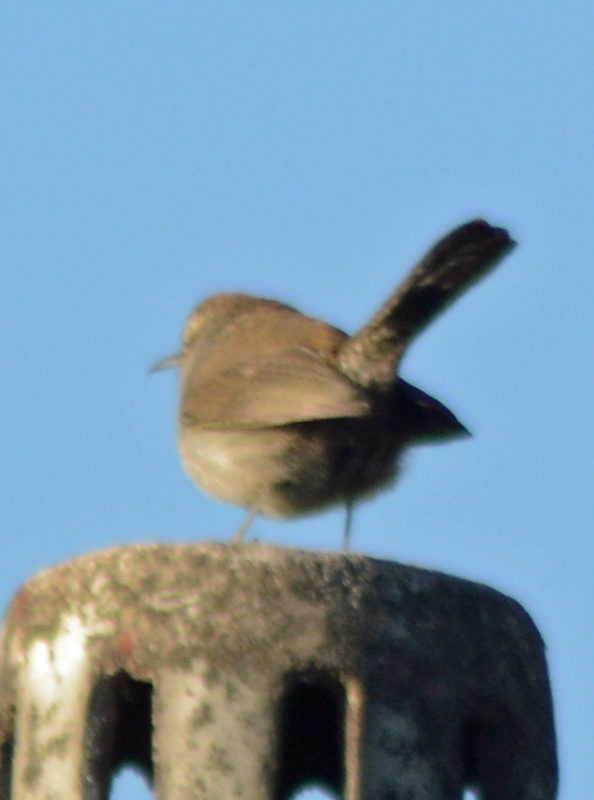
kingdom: Animalia
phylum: Chordata
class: Aves
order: Passeriformes
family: Troglodytidae
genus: Thryomanes
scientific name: Thryomanes bewickii
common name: Bewick's wren
